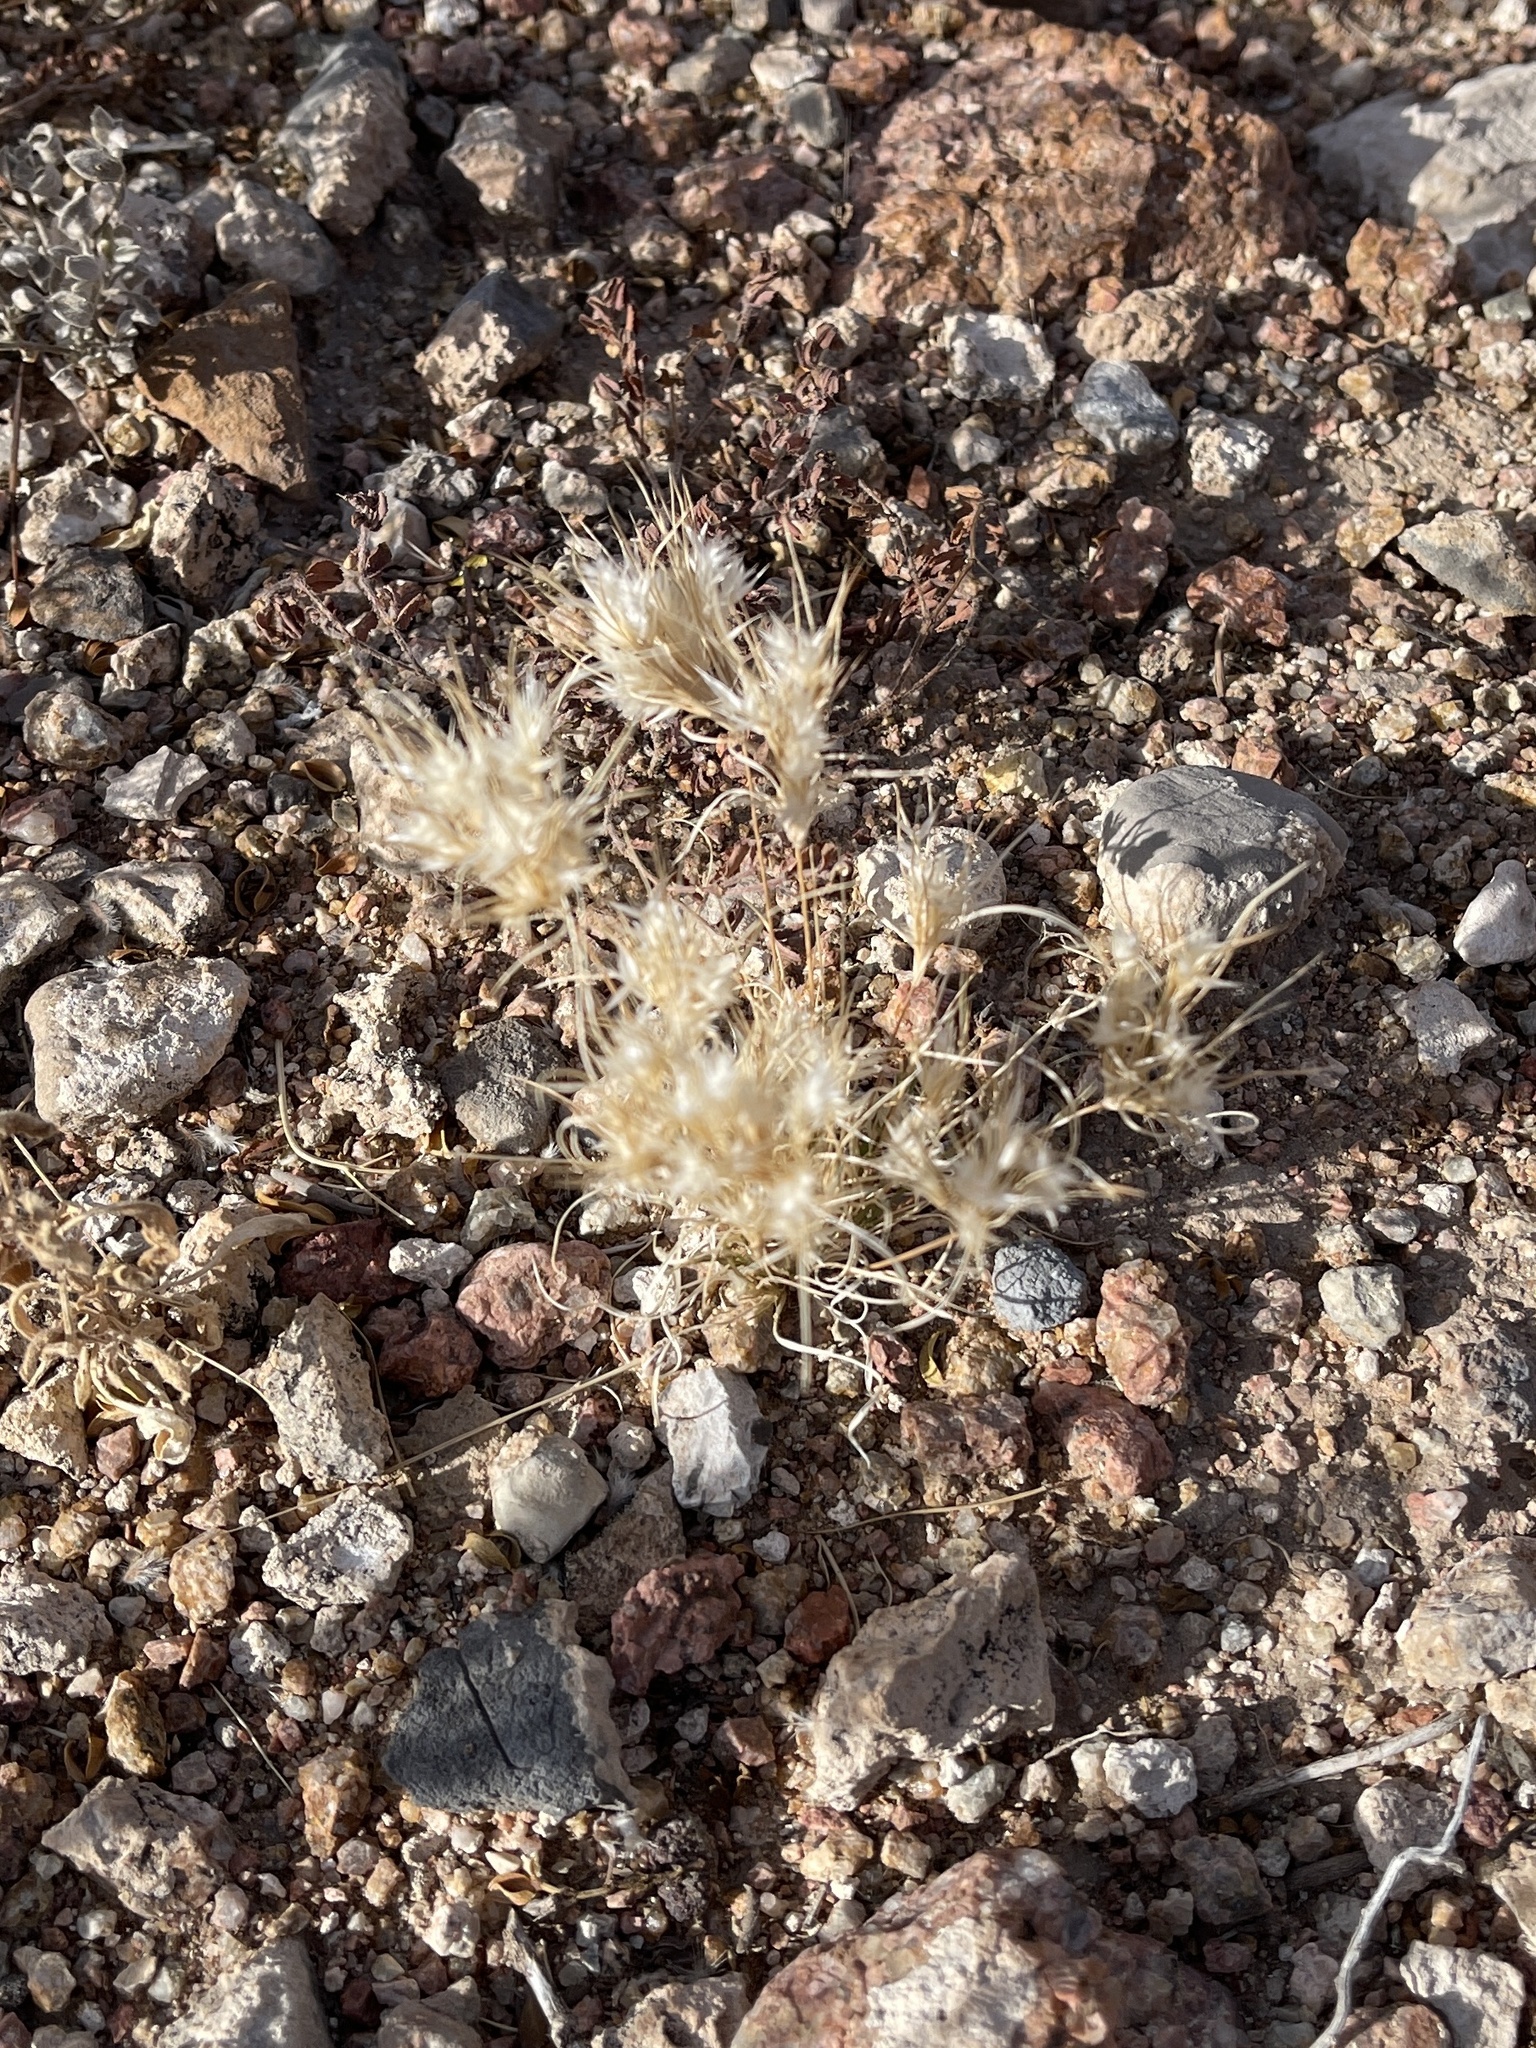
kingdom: Plantae
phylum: Tracheophyta
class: Liliopsida
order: Poales
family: Poaceae
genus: Dasyochloa
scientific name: Dasyochloa pulchella
